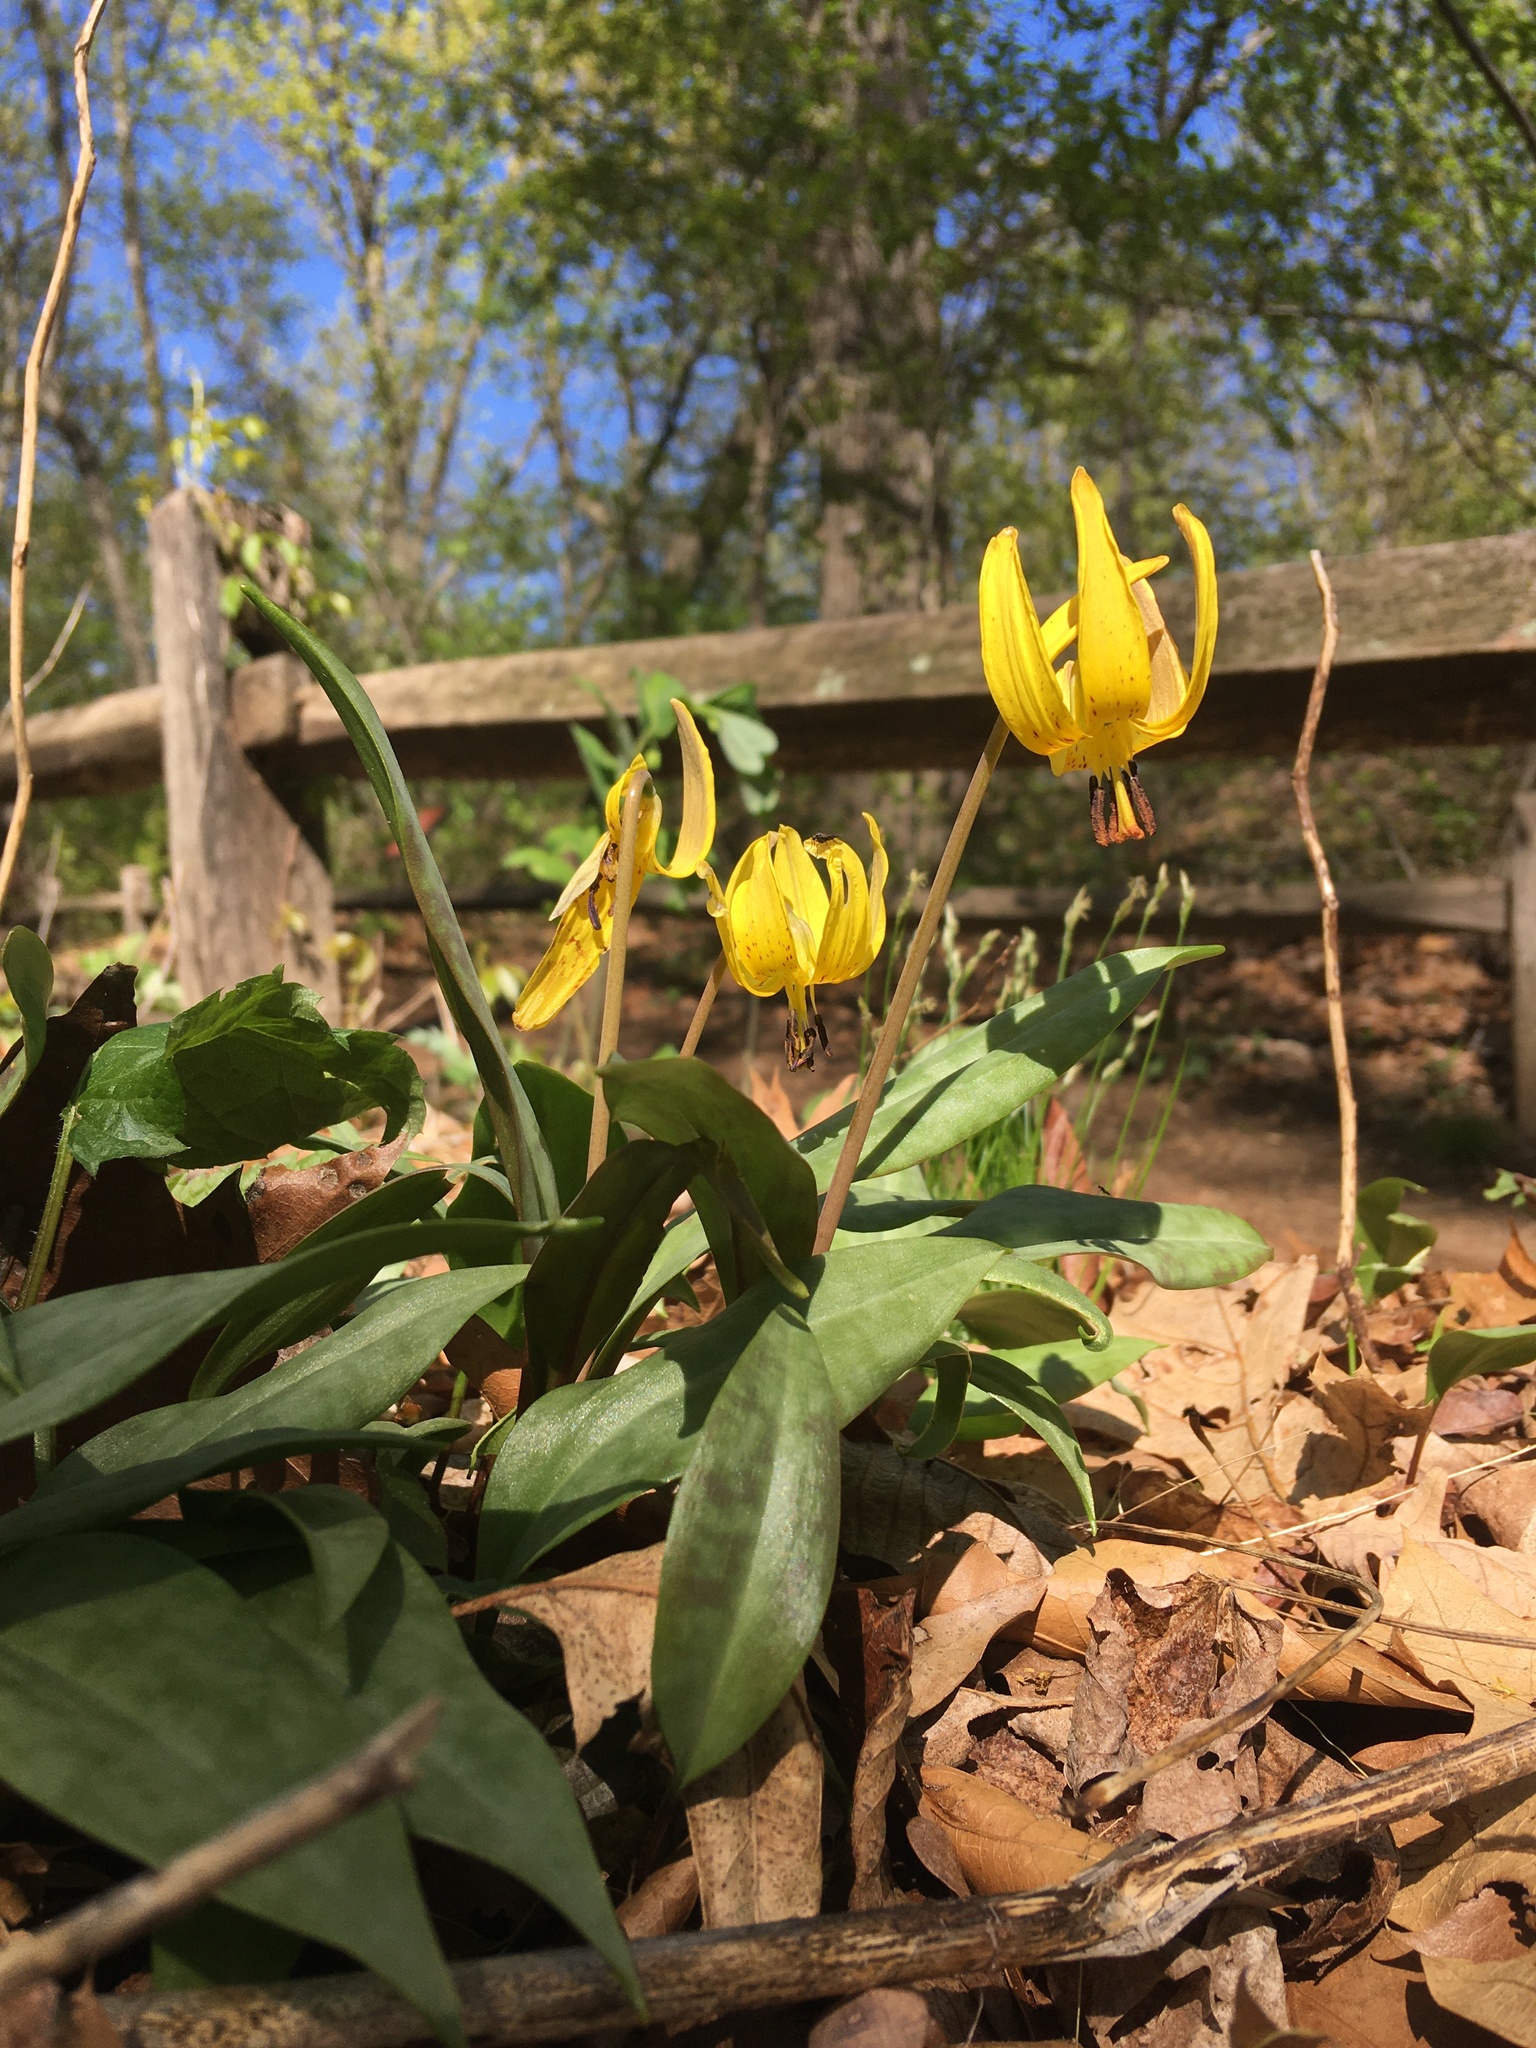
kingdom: Plantae
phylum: Tracheophyta
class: Liliopsida
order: Liliales
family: Liliaceae
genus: Erythronium
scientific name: Erythronium americanum
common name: Yellow adder's-tongue
